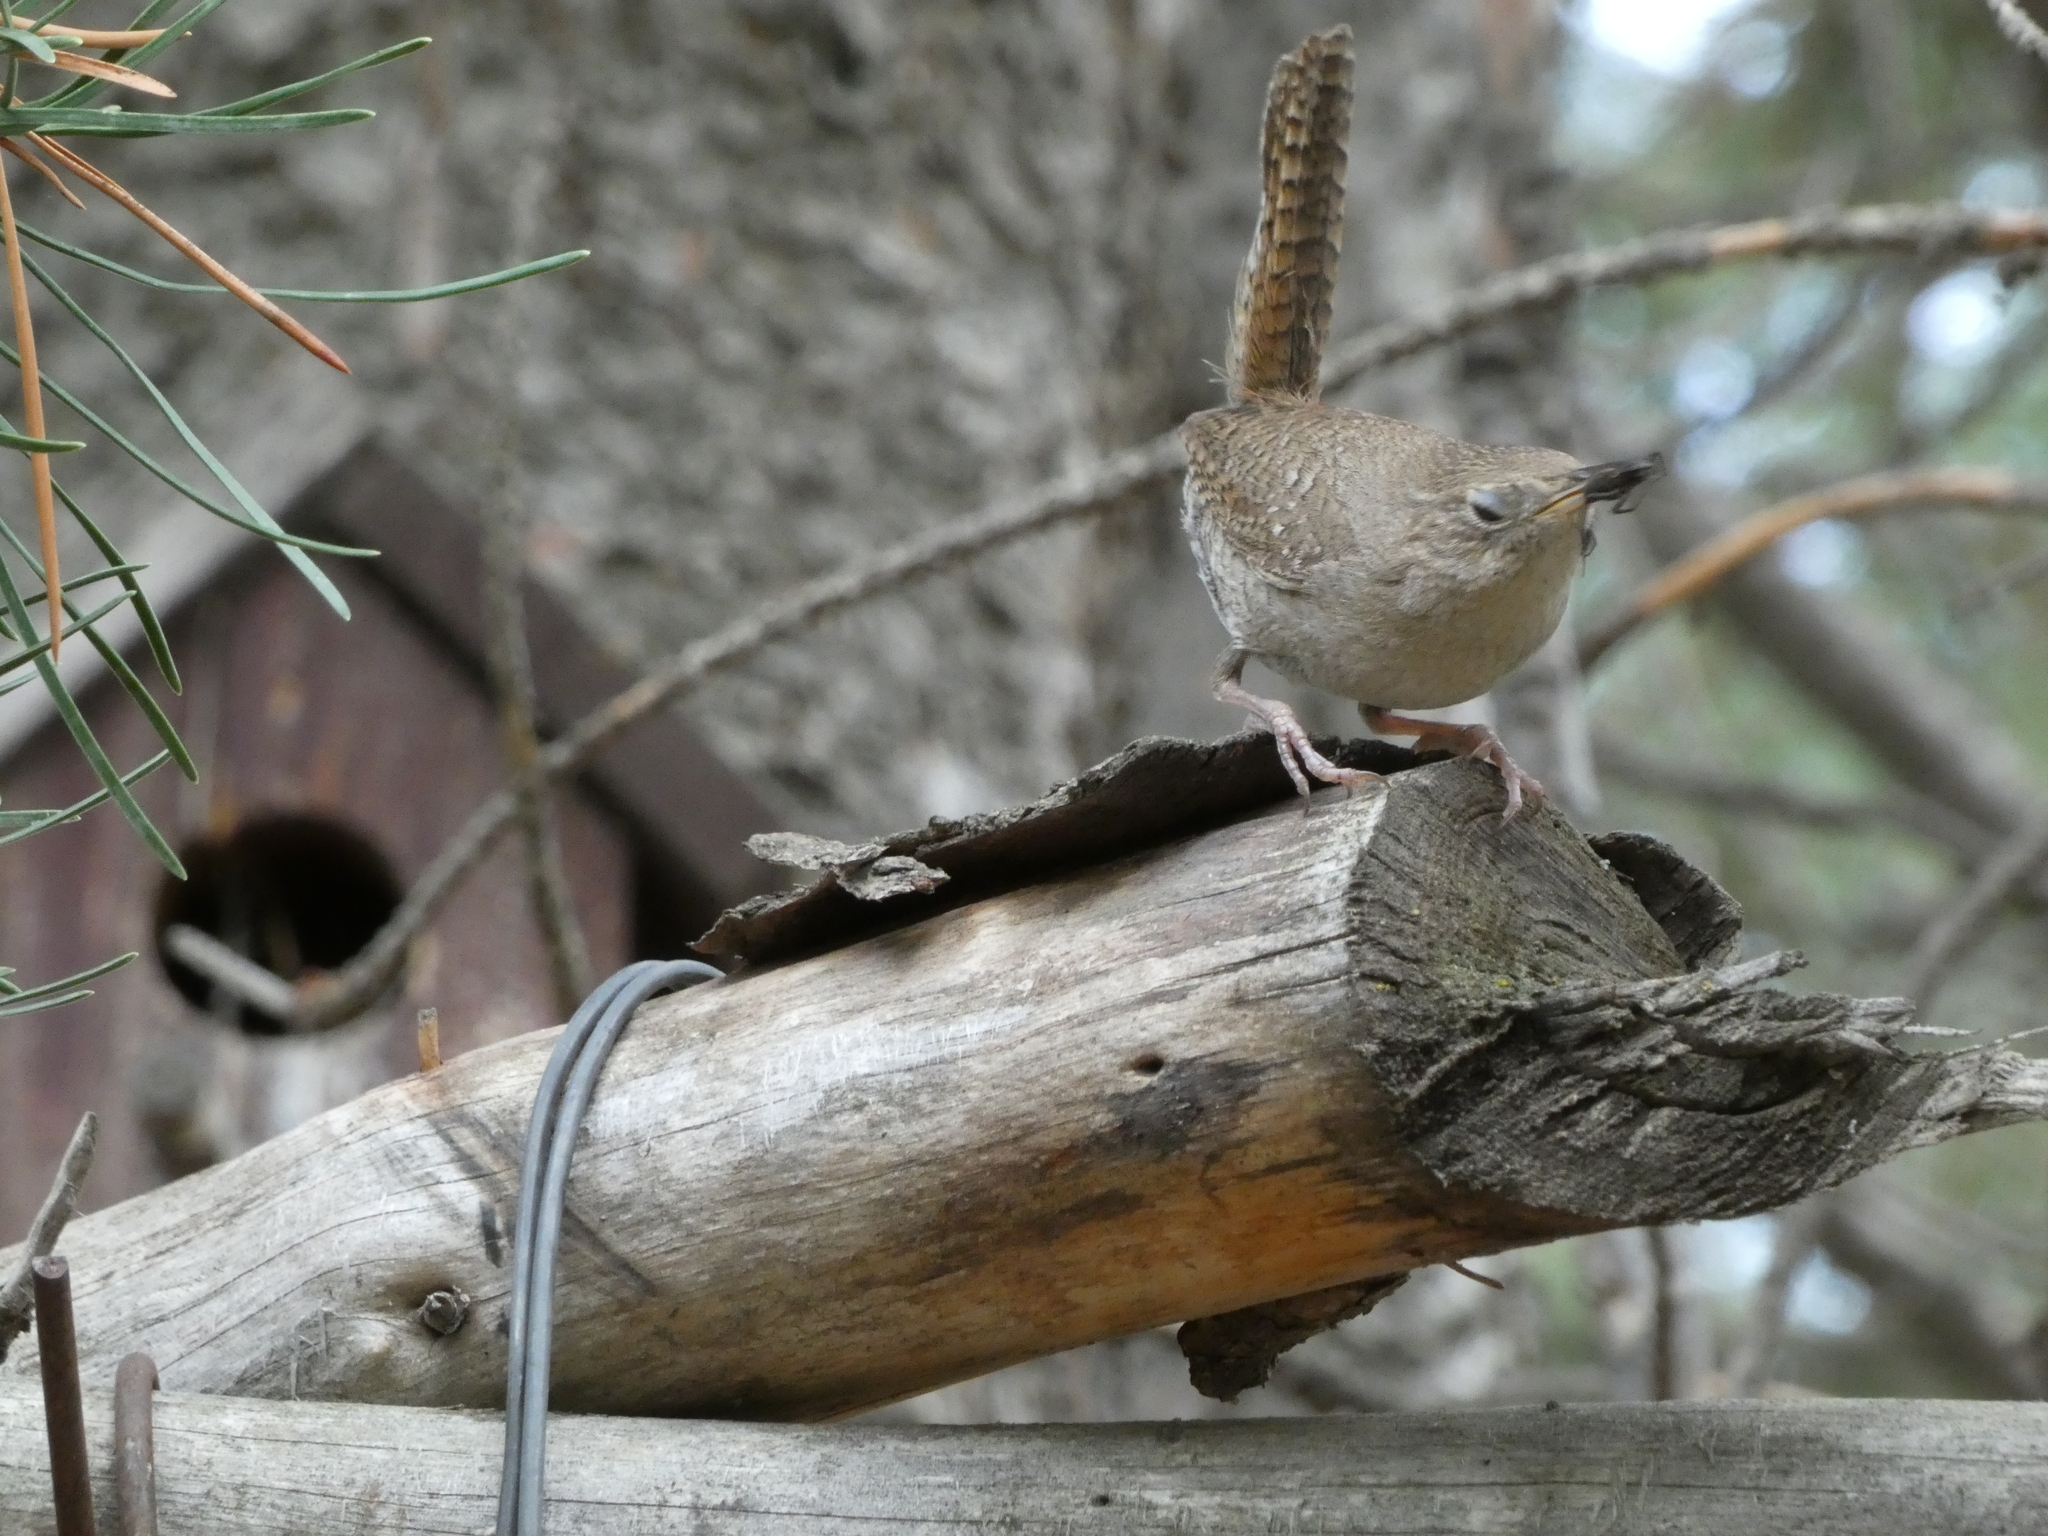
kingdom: Animalia
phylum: Chordata
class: Aves
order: Passeriformes
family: Troglodytidae
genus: Troglodytes
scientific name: Troglodytes aedon
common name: House wren
